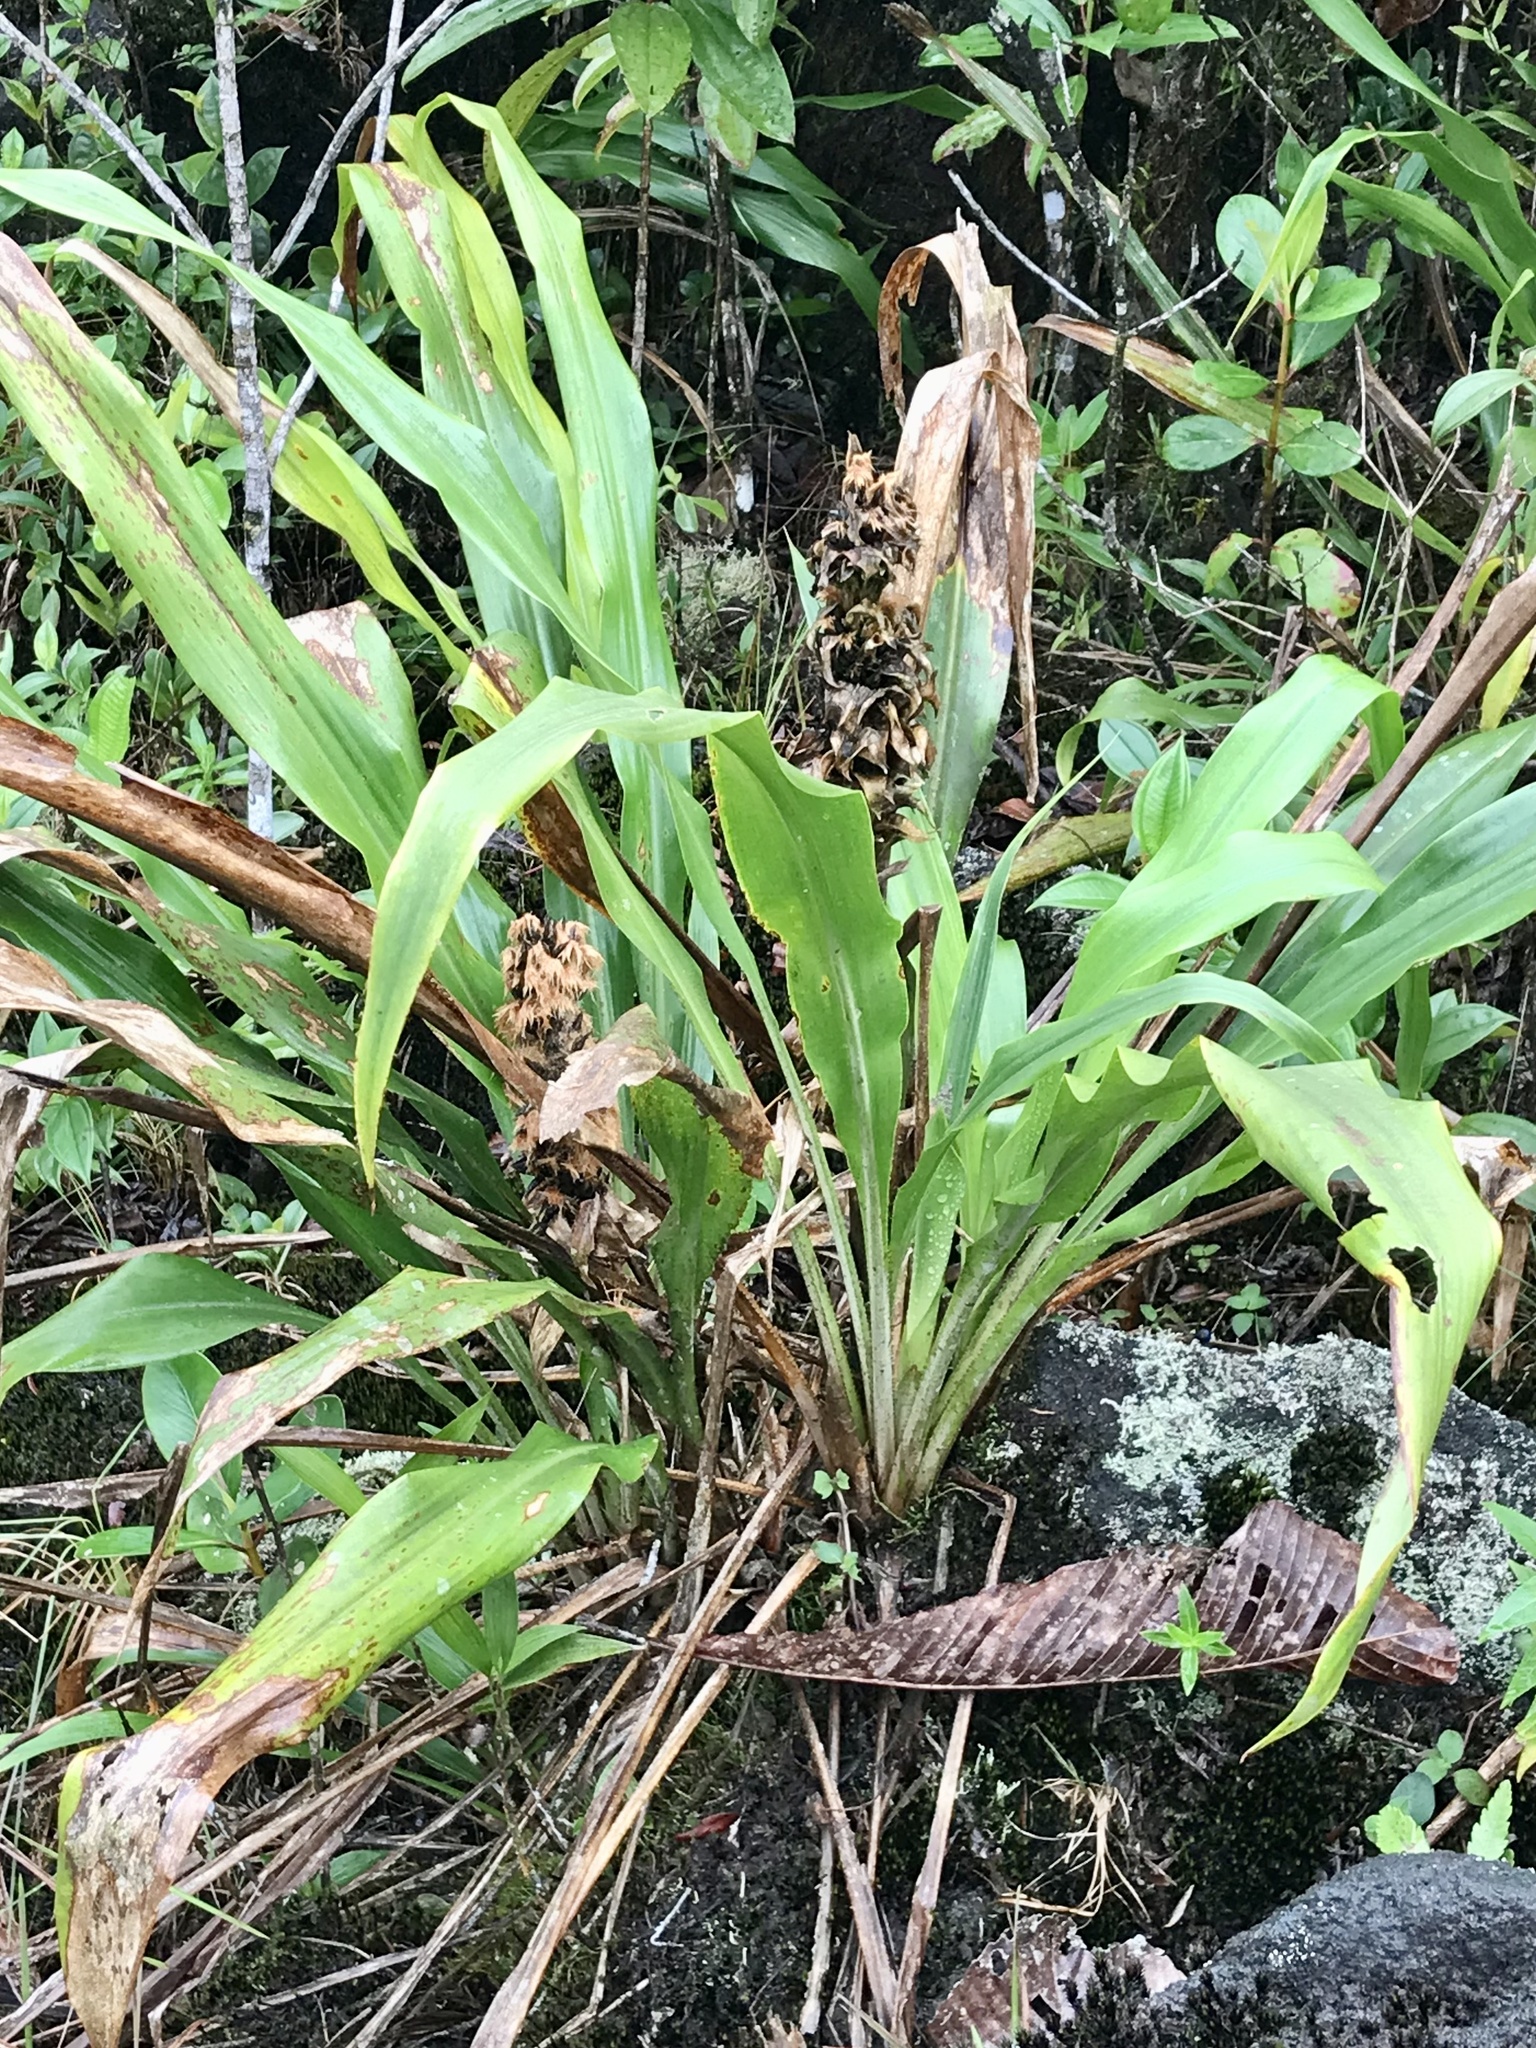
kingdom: Plantae
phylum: Tracheophyta
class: Liliopsida
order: Poales
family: Bromeliaceae
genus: Pitcairnia
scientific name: Pitcairnia funkiae
